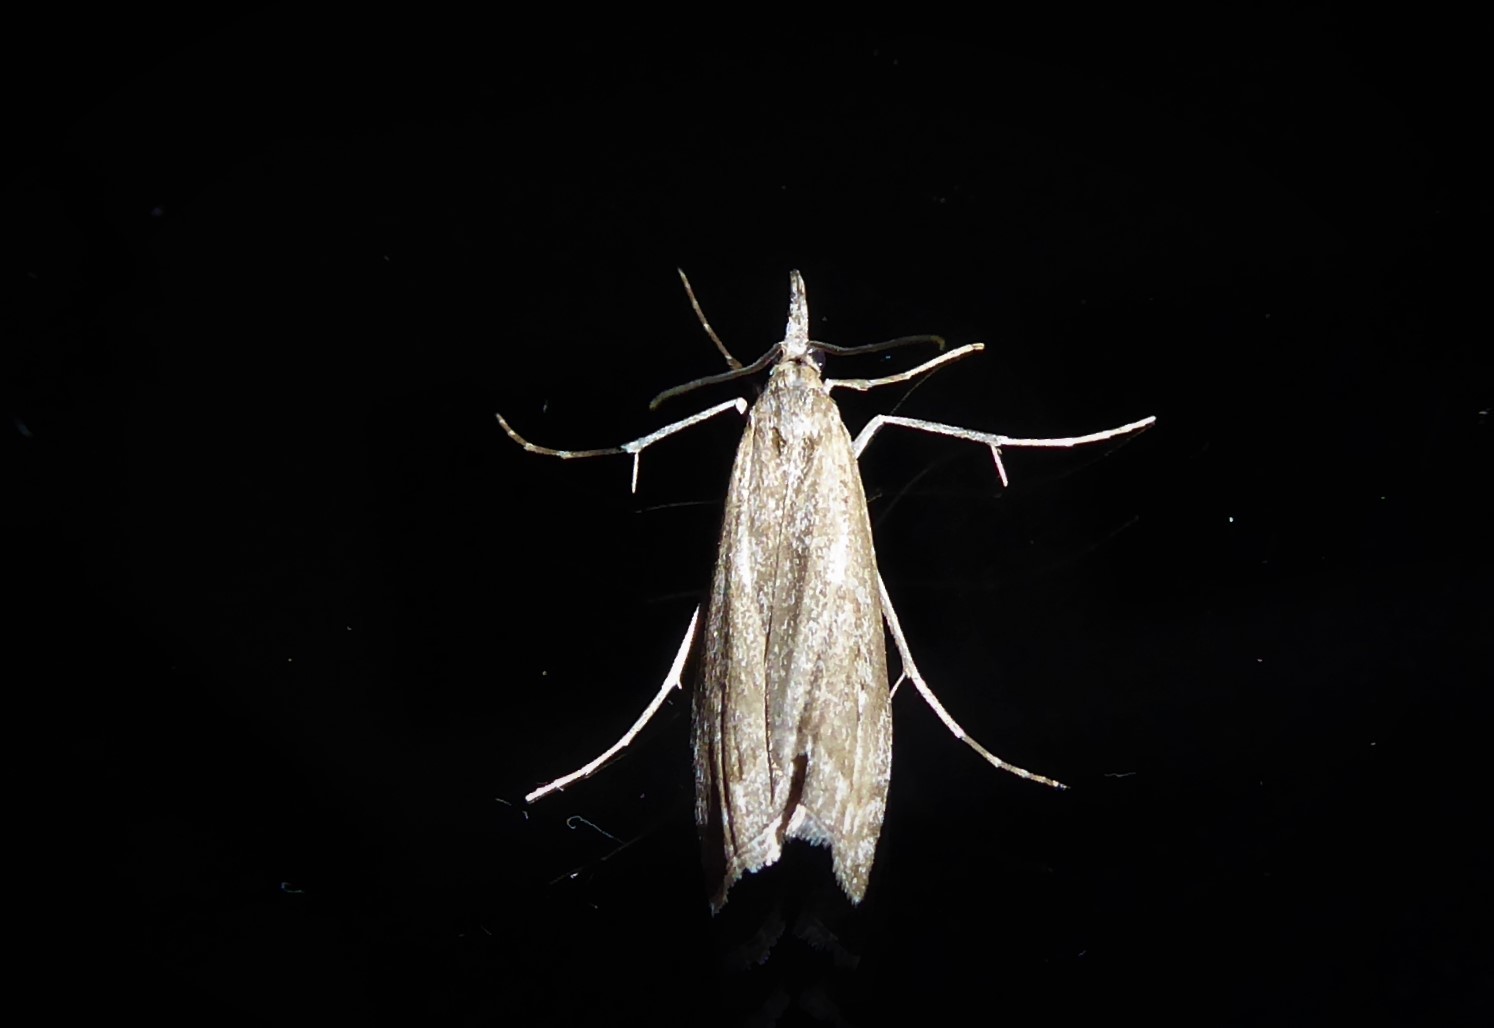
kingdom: Animalia
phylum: Arthropoda
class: Insecta
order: Lepidoptera
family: Crambidae
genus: Orocrambus
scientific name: Orocrambus cyclopicus
